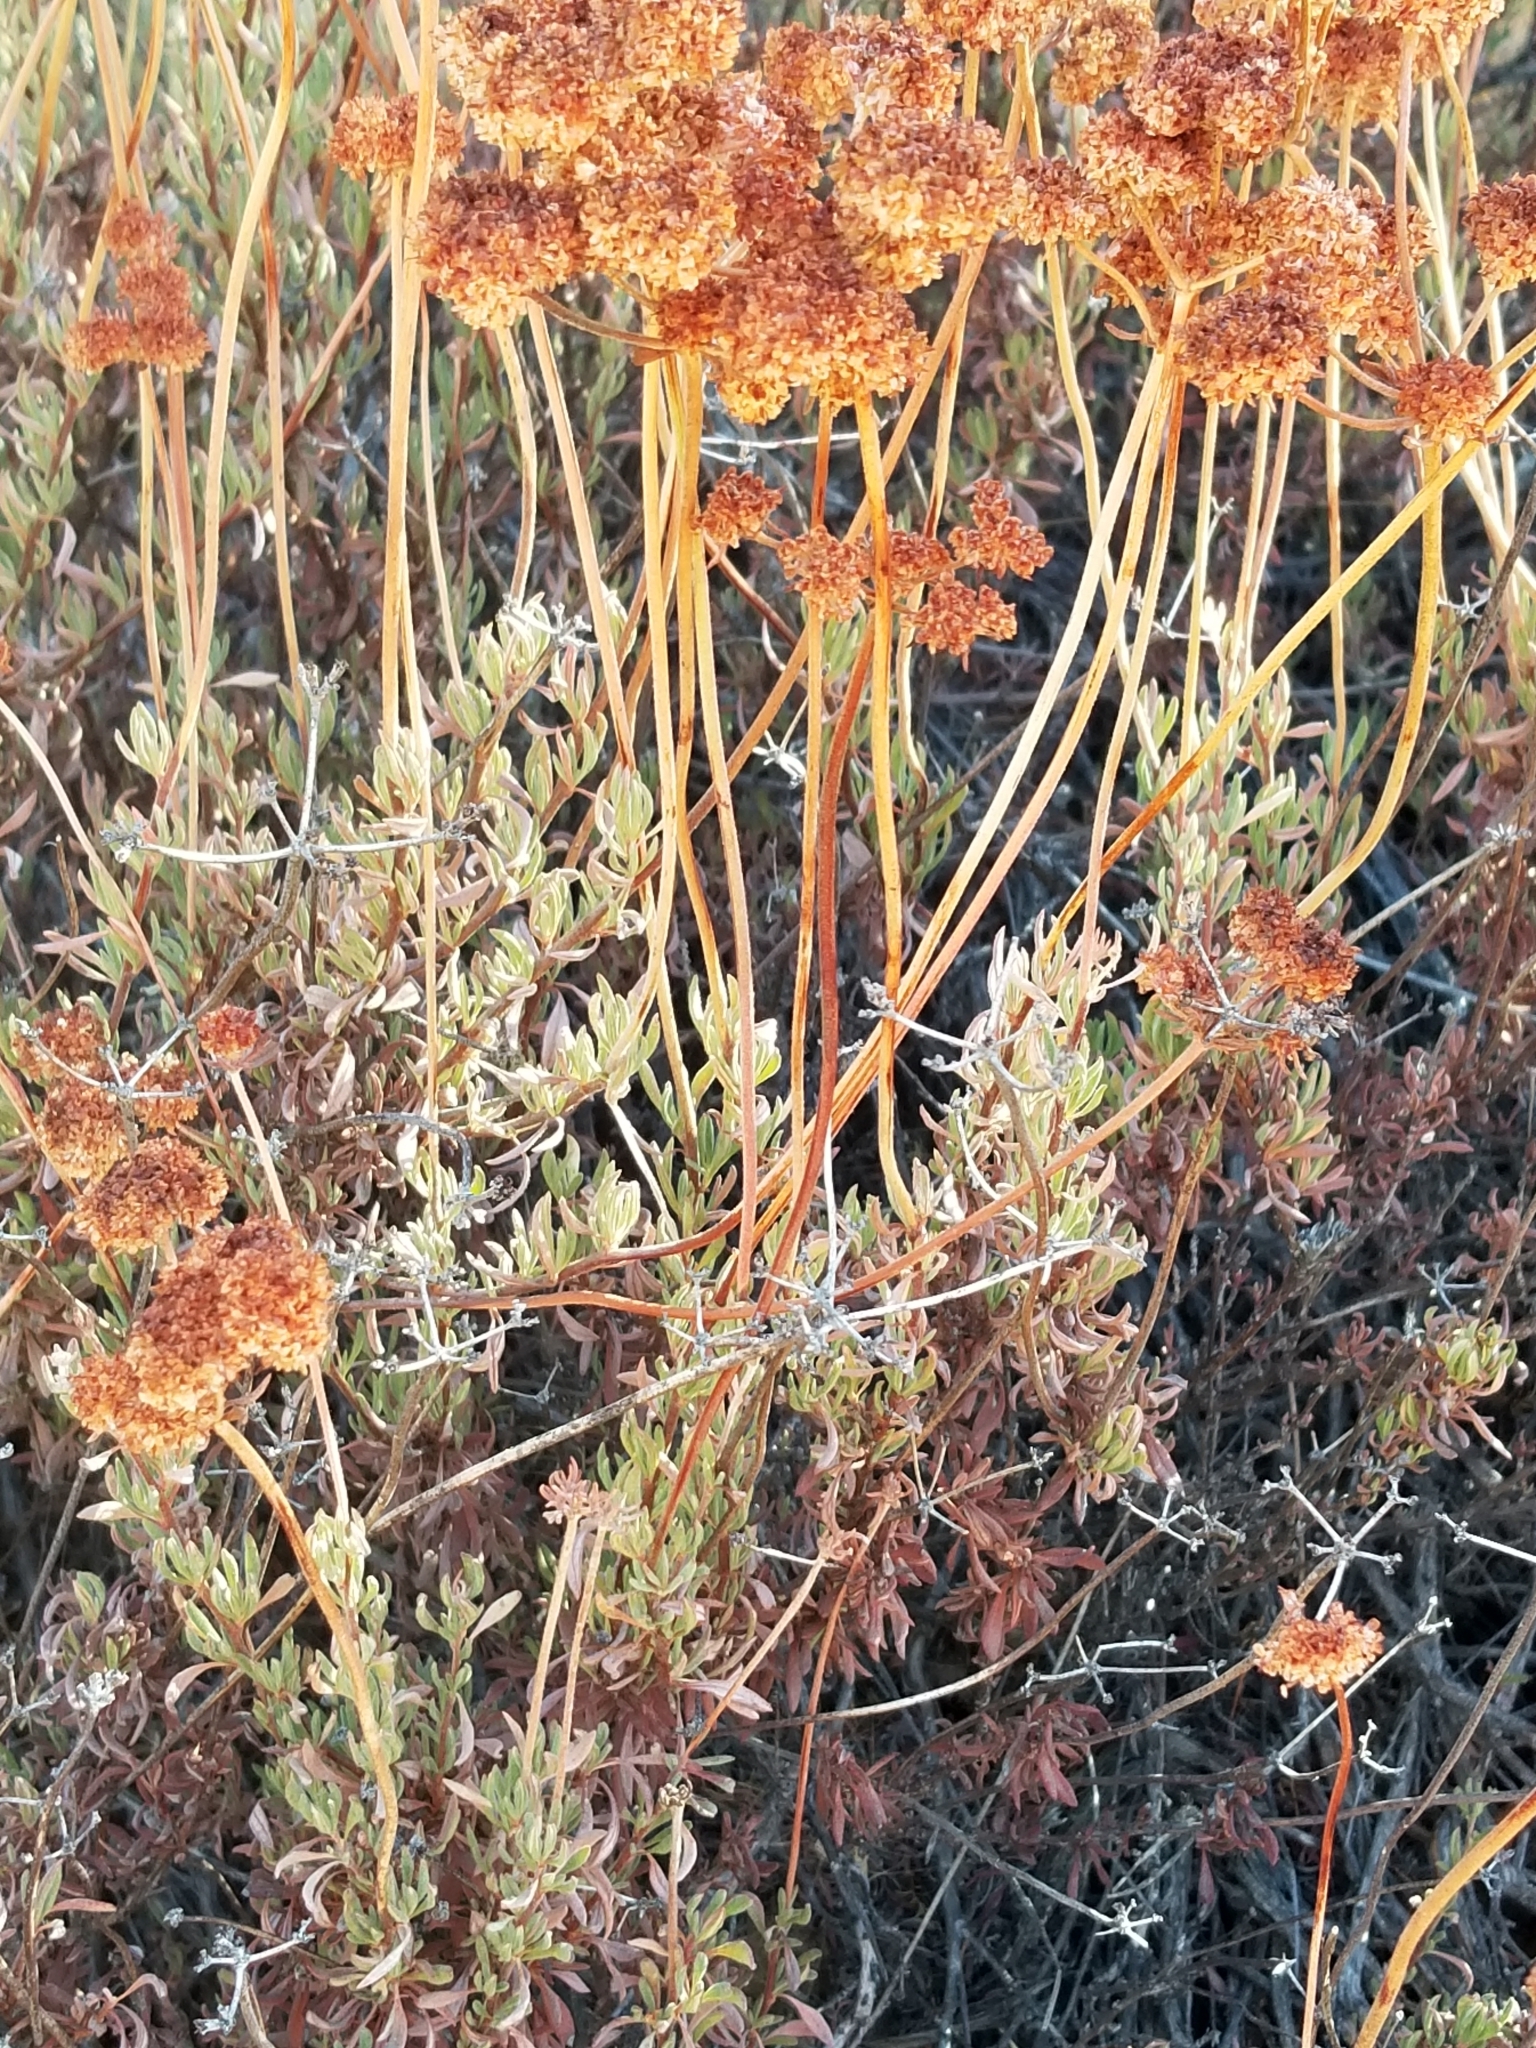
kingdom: Plantae
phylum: Tracheophyta
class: Magnoliopsida
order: Caryophyllales
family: Polygonaceae
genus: Eriogonum
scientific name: Eriogonum fasciculatum
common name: California wild buckwheat
